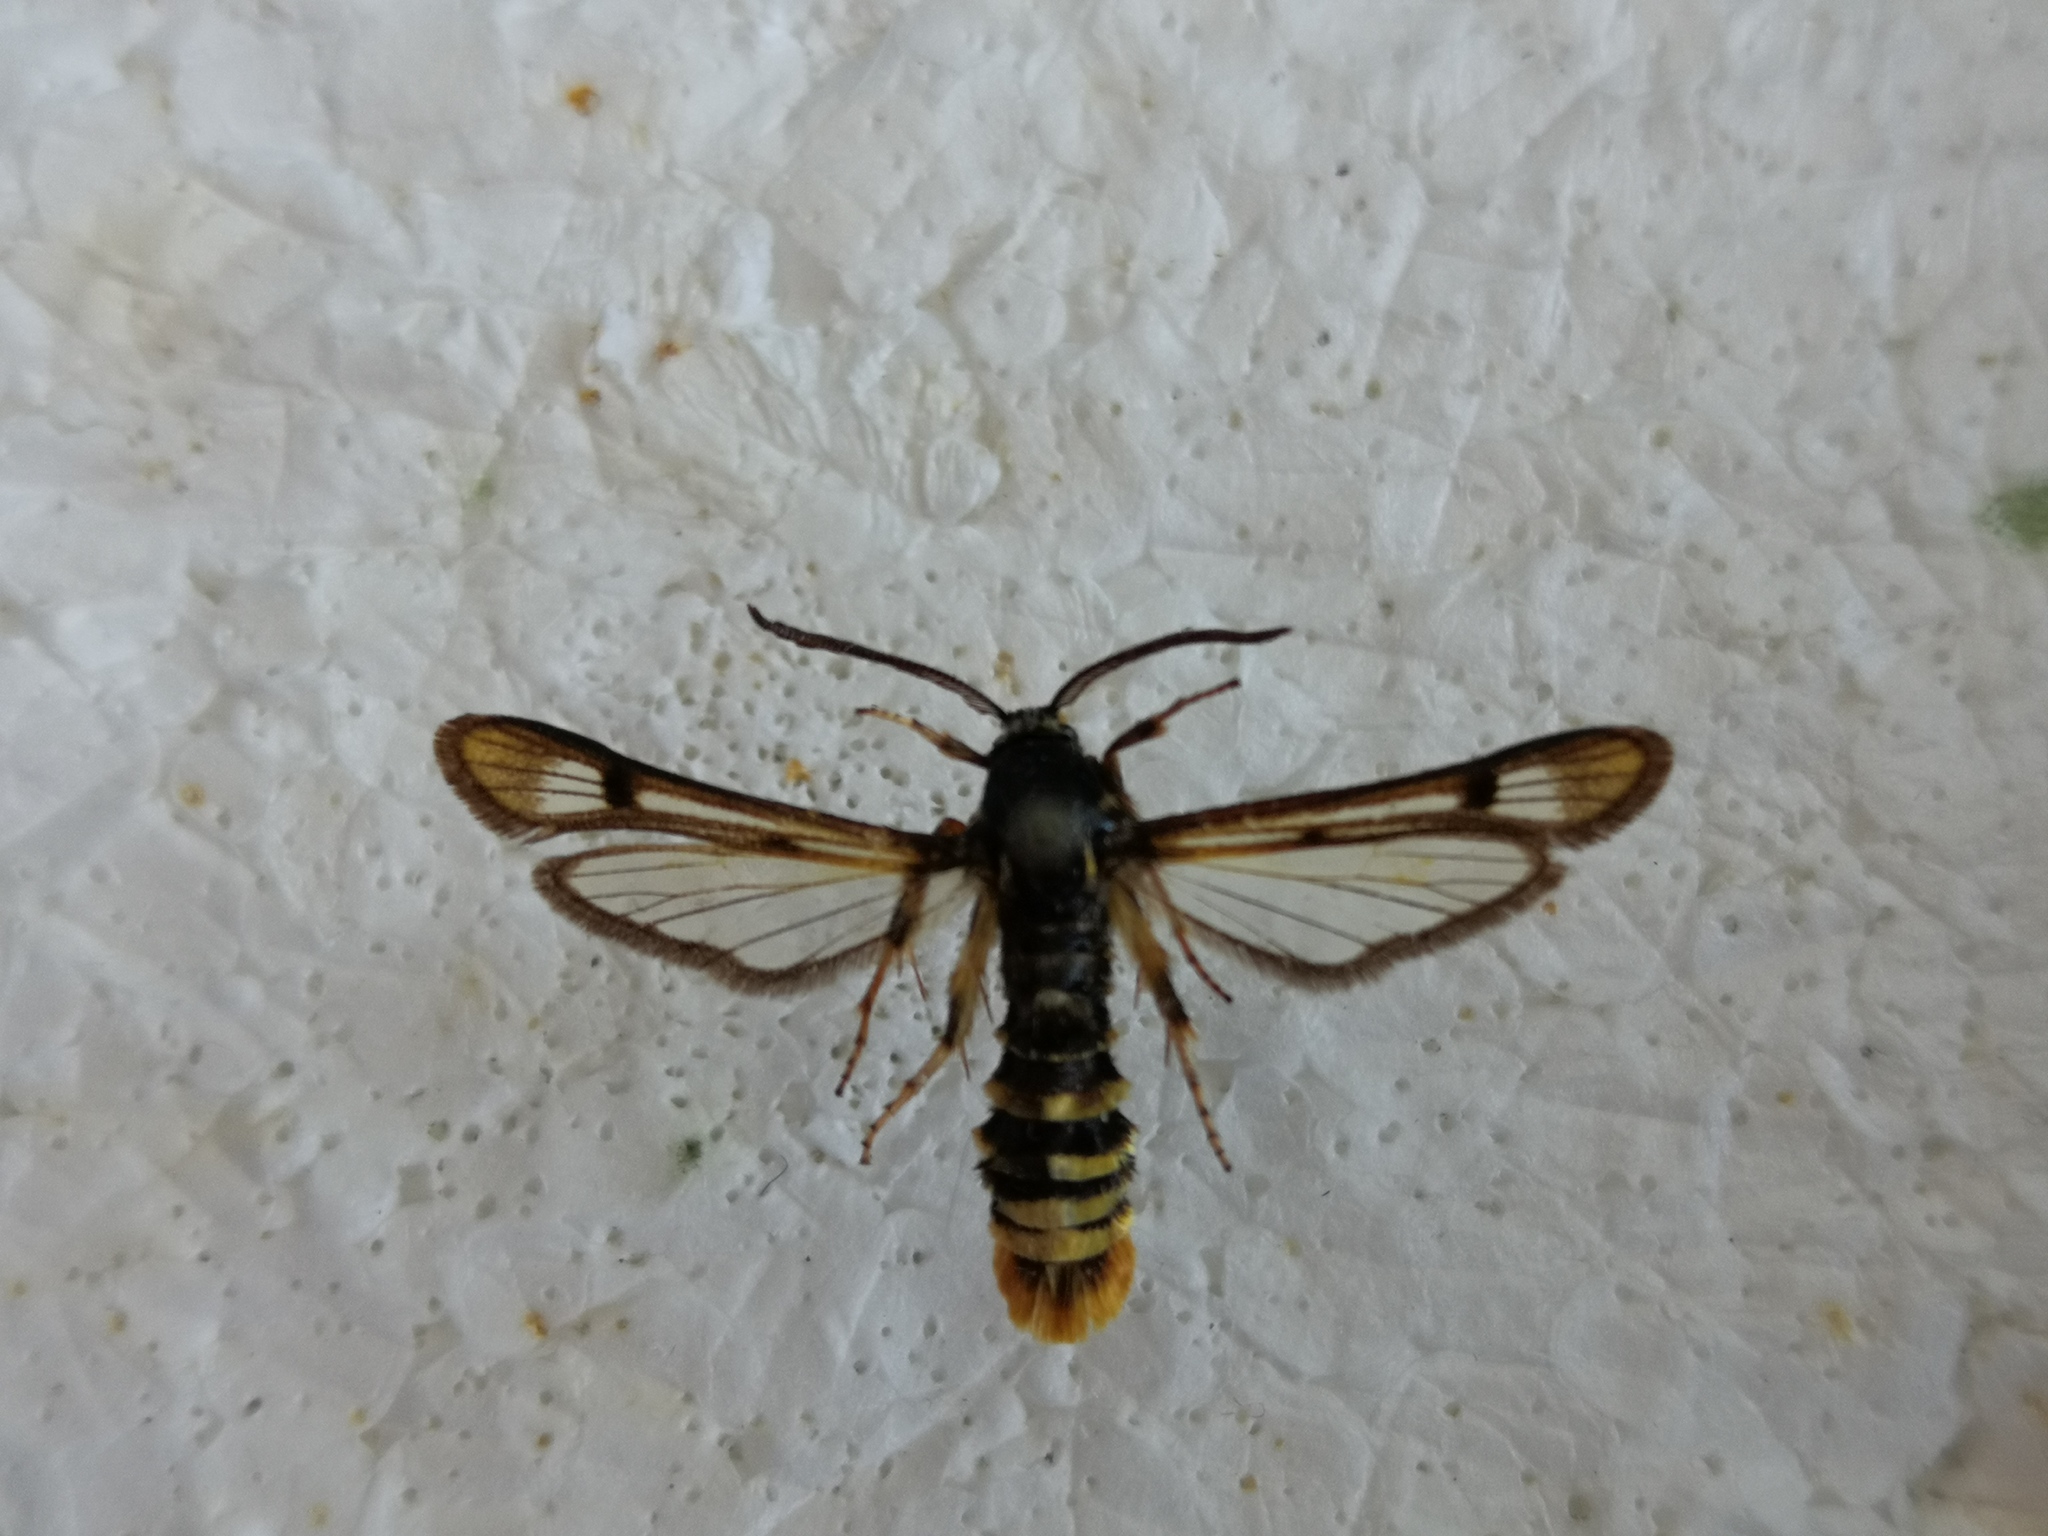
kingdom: Animalia
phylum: Arthropoda
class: Insecta
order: Lepidoptera
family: Sesiidae
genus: Pennisetia
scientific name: Pennisetia hylaeiformis
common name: Raspberry clearwing
